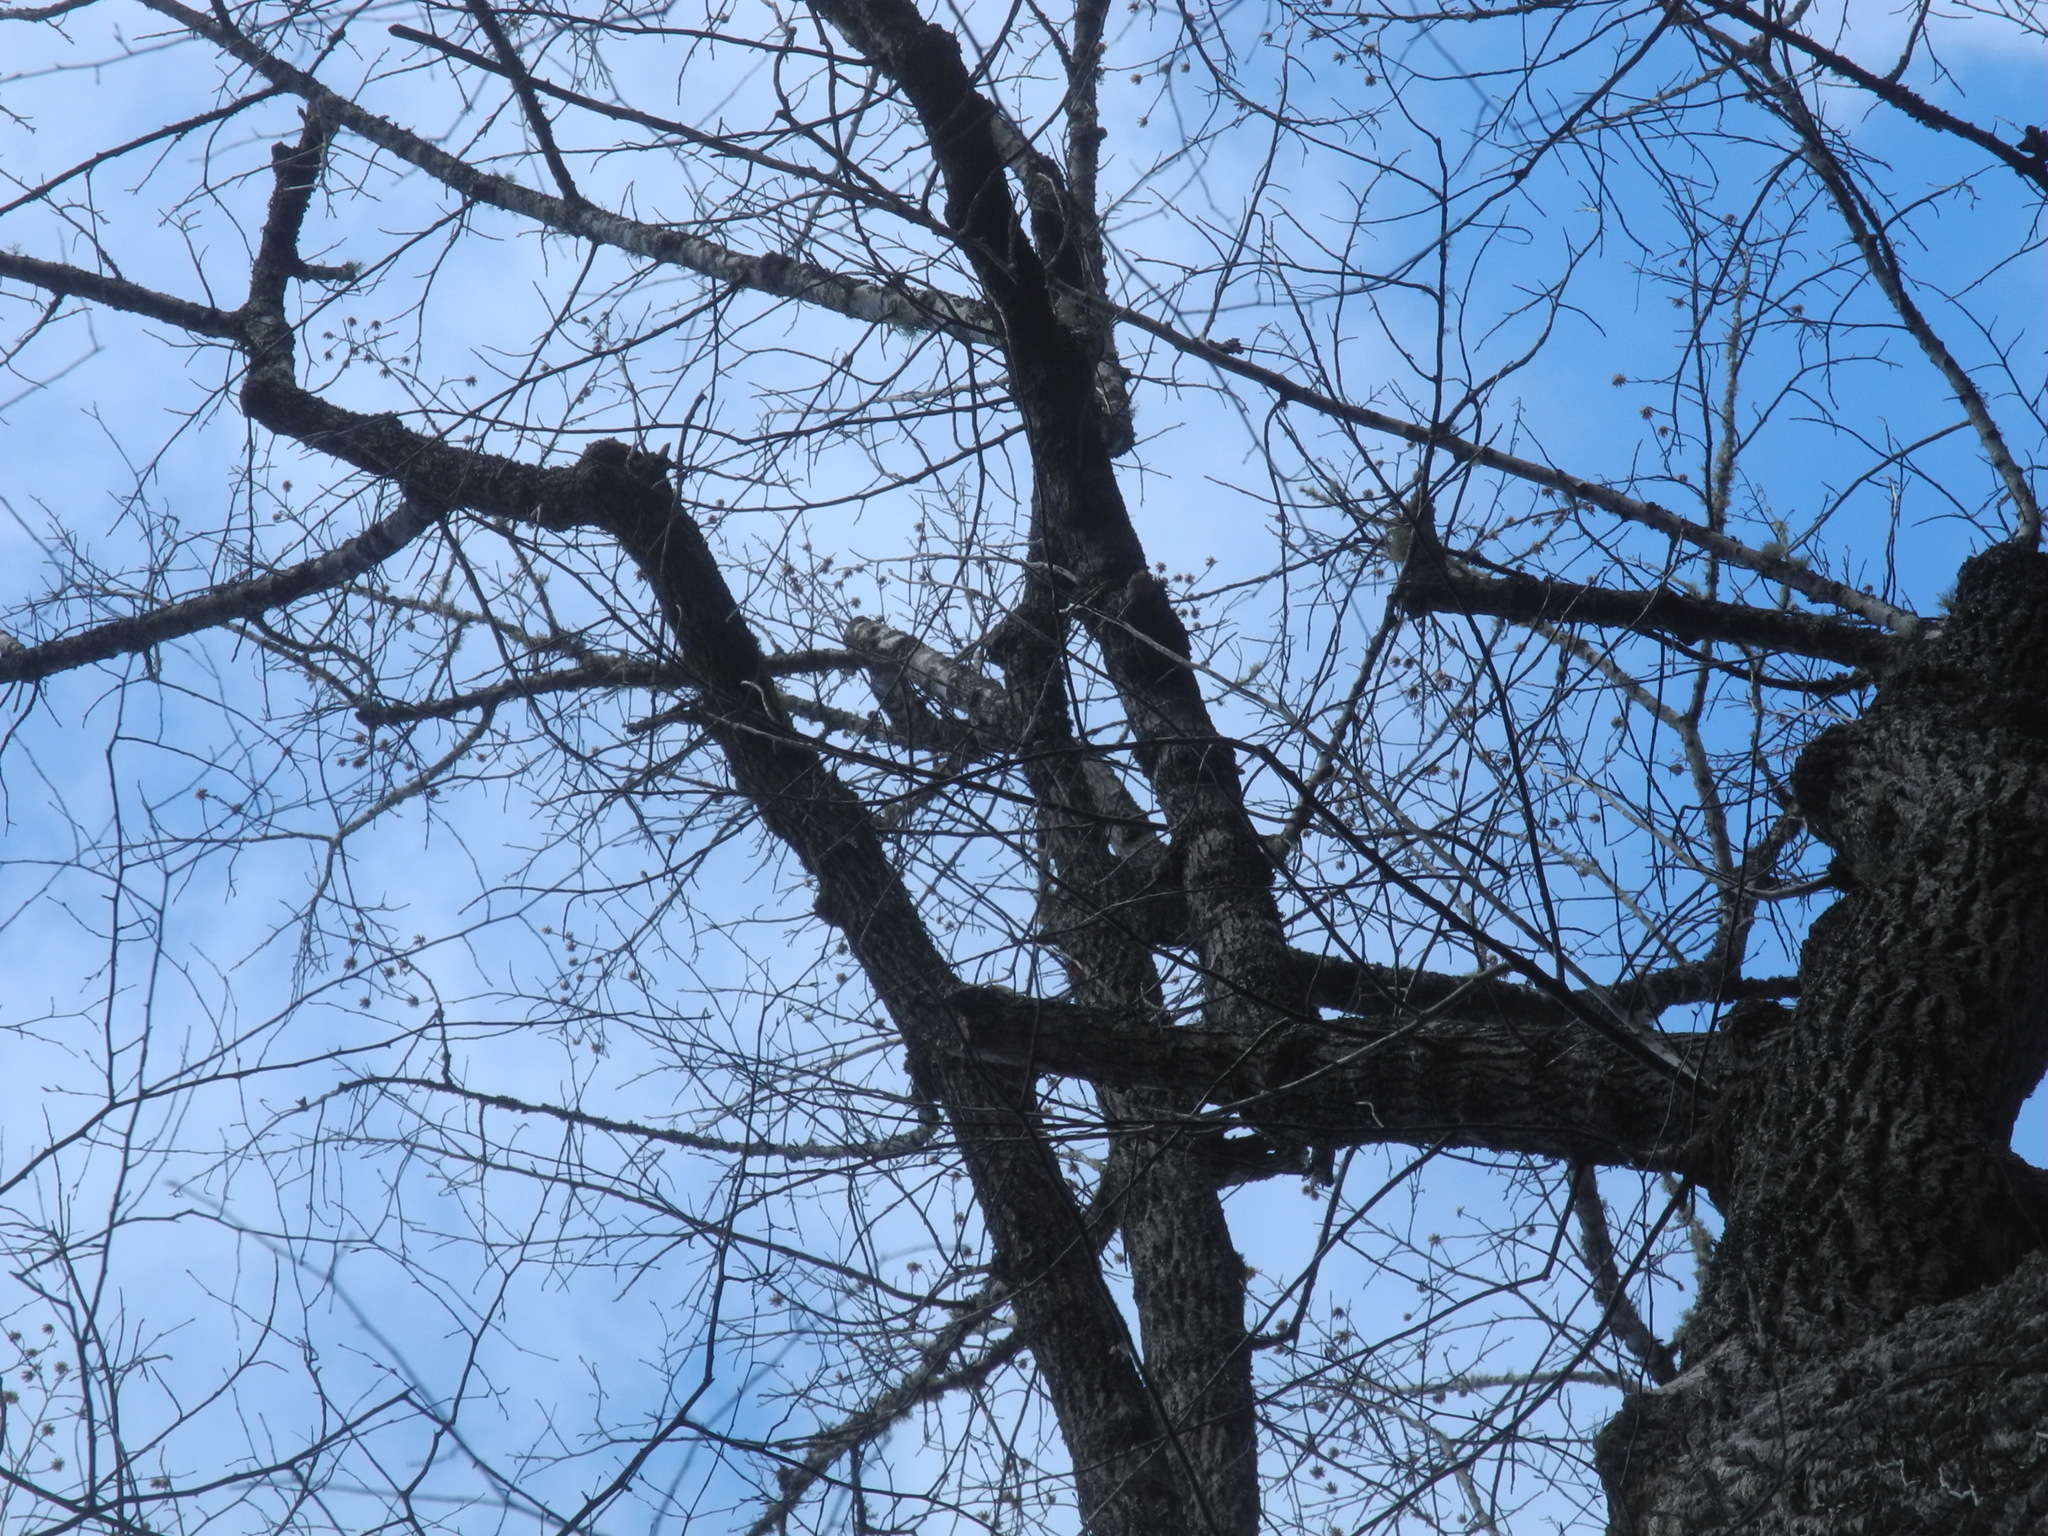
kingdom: Plantae
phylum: Tracheophyta
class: Magnoliopsida
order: Magnoliales
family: Magnoliaceae
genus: Liriodendron
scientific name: Liriodendron tulipifera
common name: Tulip tree
